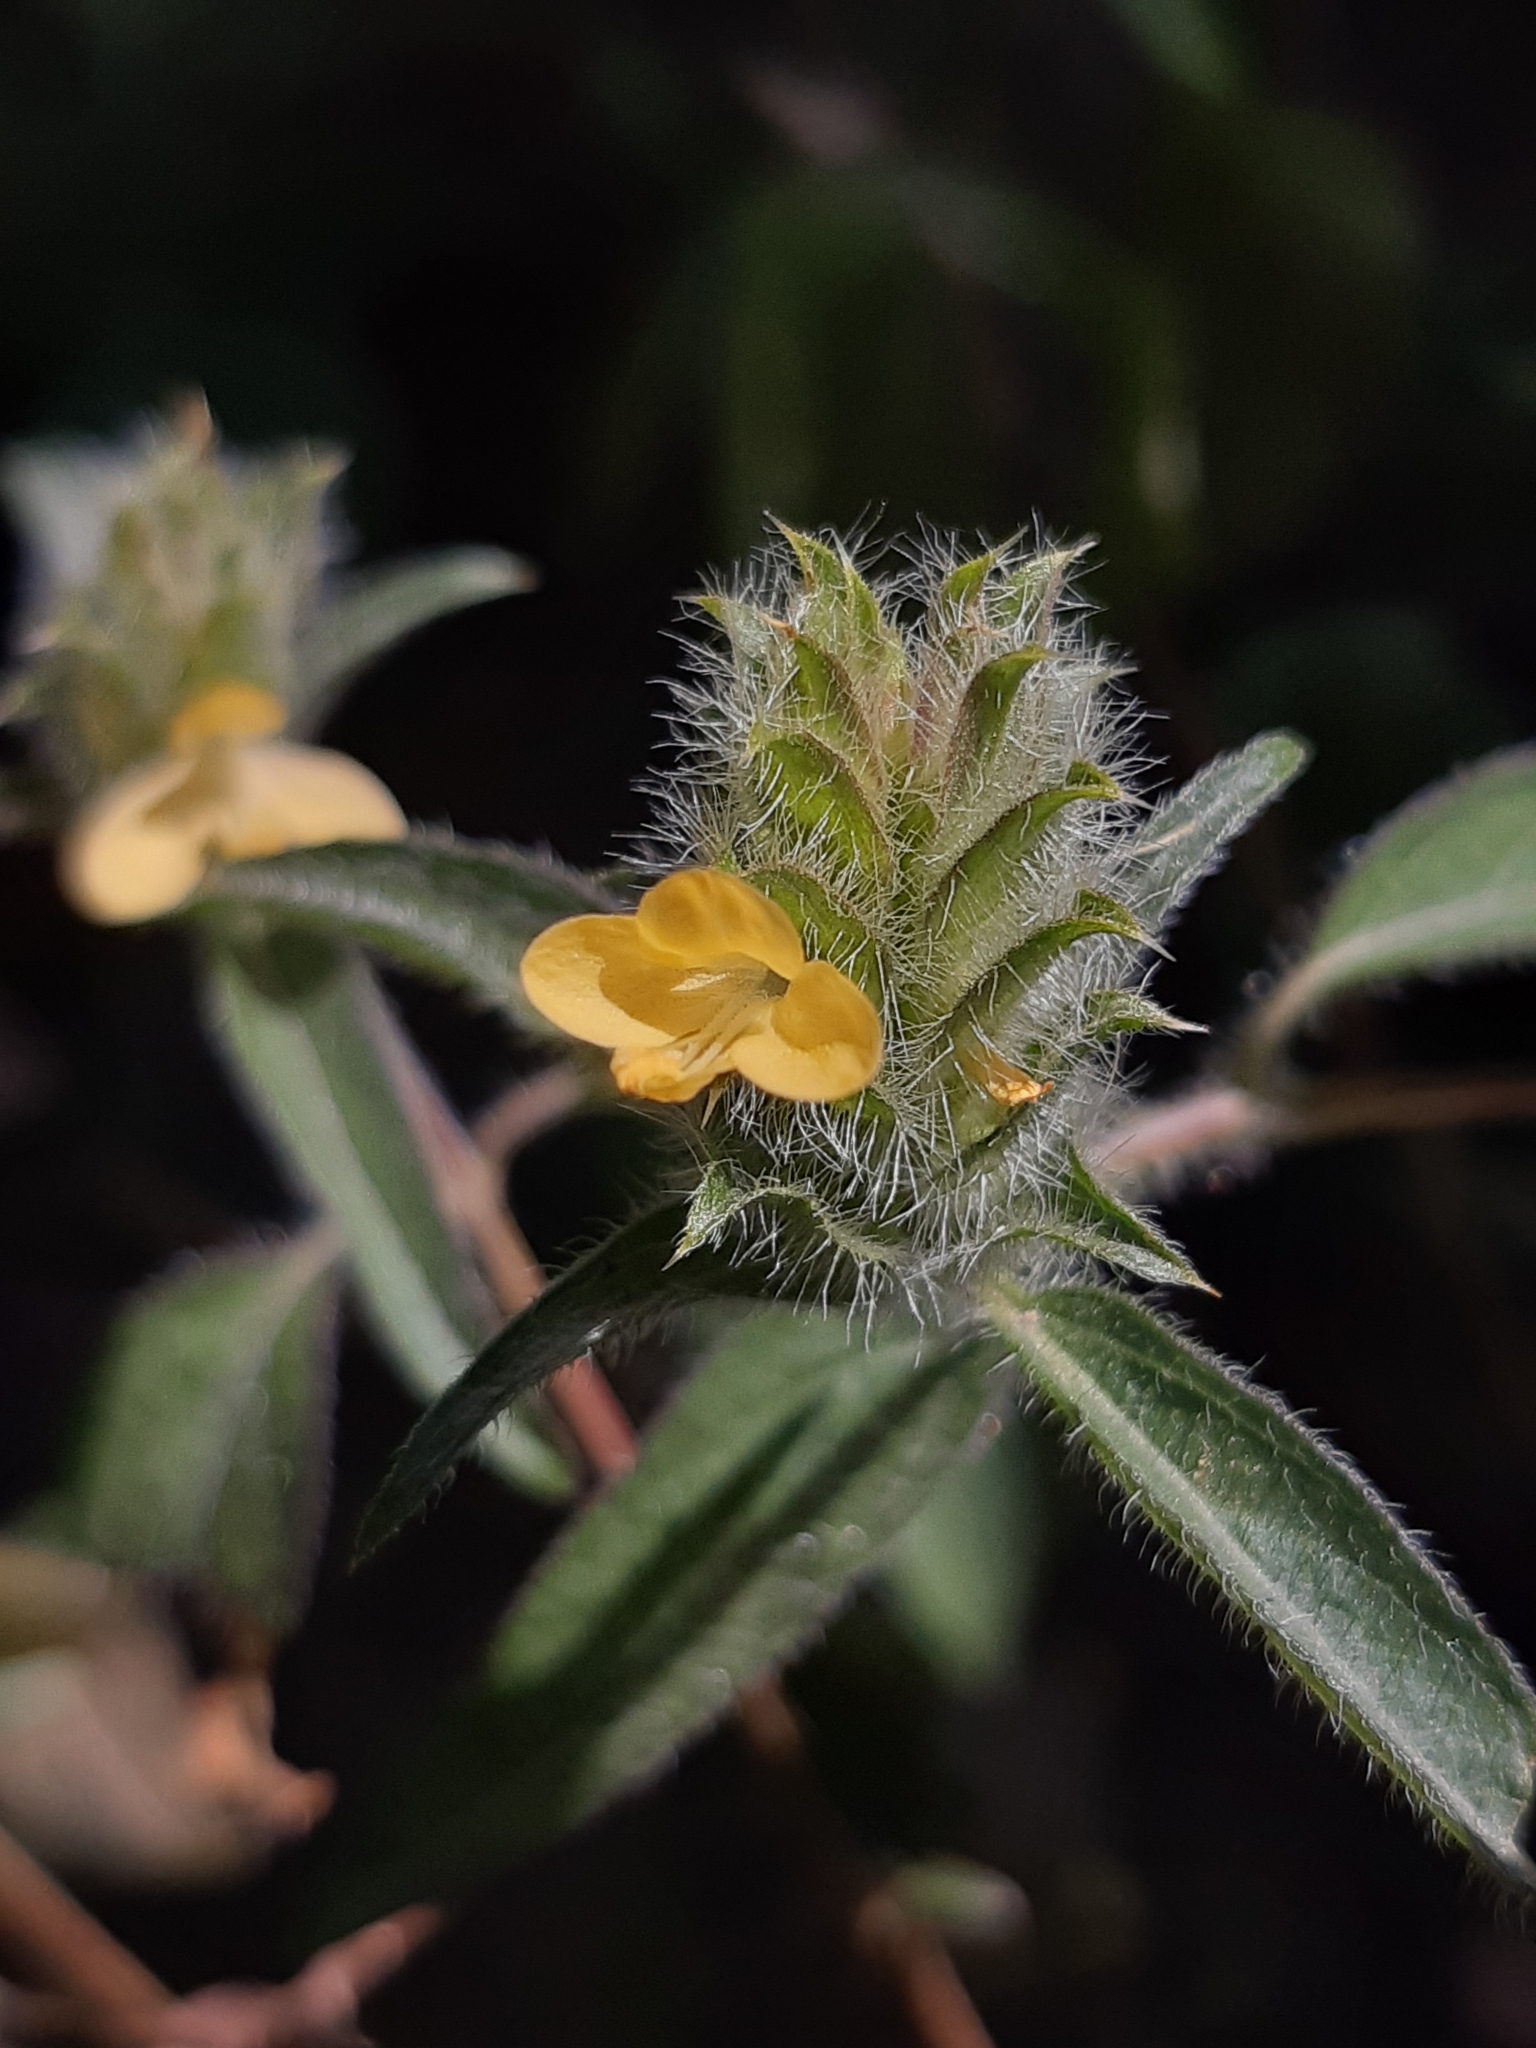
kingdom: Plantae
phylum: Tracheophyta
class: Magnoliopsida
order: Lamiales
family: Acanthaceae
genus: Tetramerium
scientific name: Tetramerium nervosum
